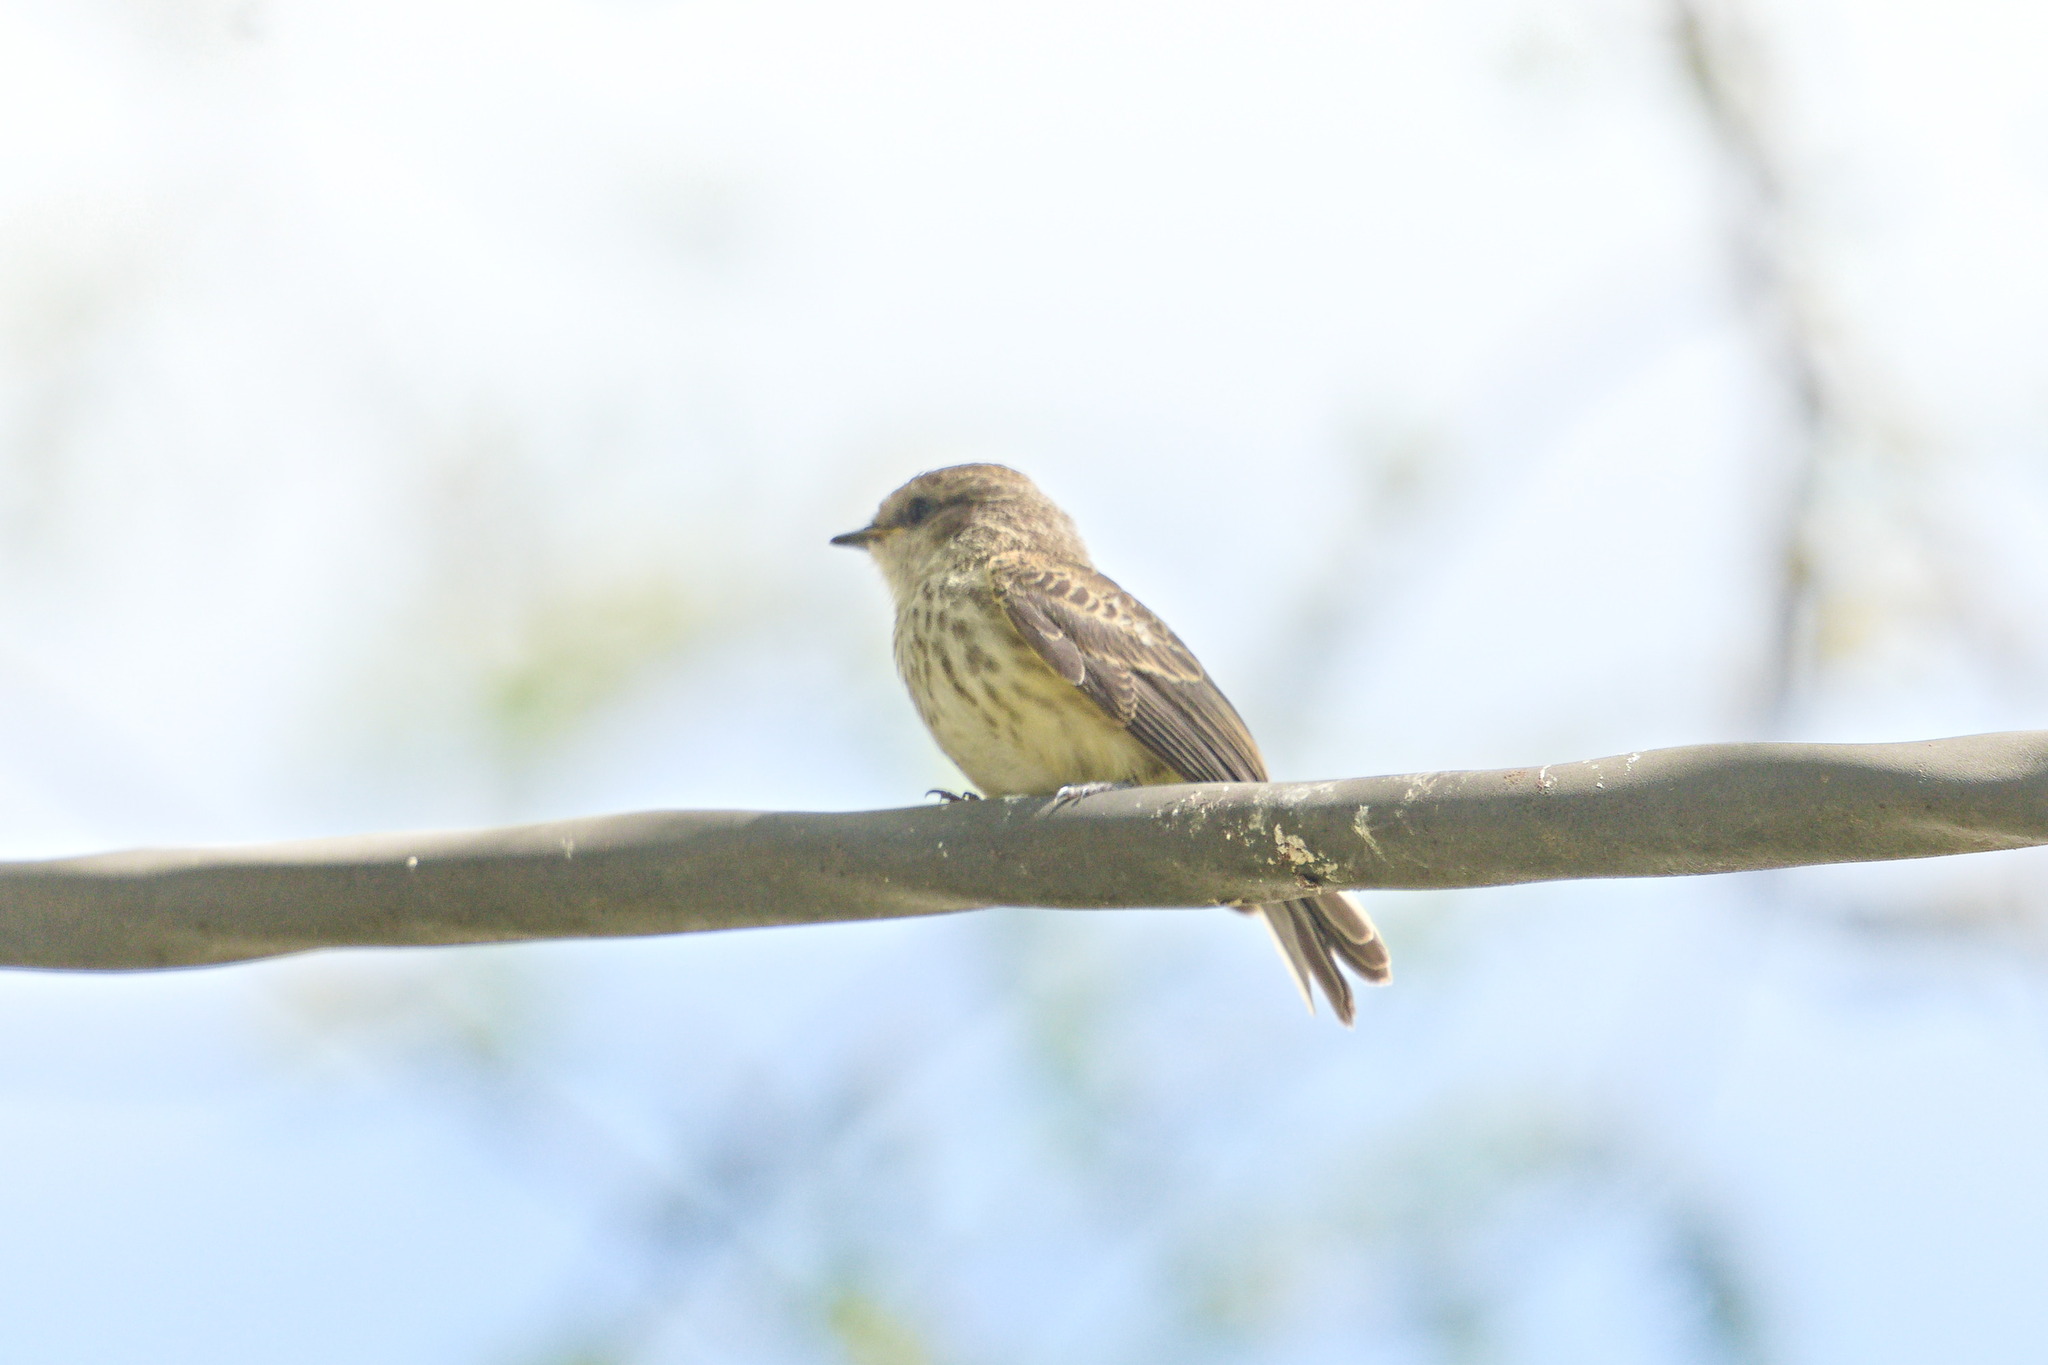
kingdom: Animalia
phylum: Chordata
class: Aves
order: Passeriformes
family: Tyrannidae
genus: Pyrocephalus
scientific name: Pyrocephalus rubinus
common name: Vermilion flycatcher
